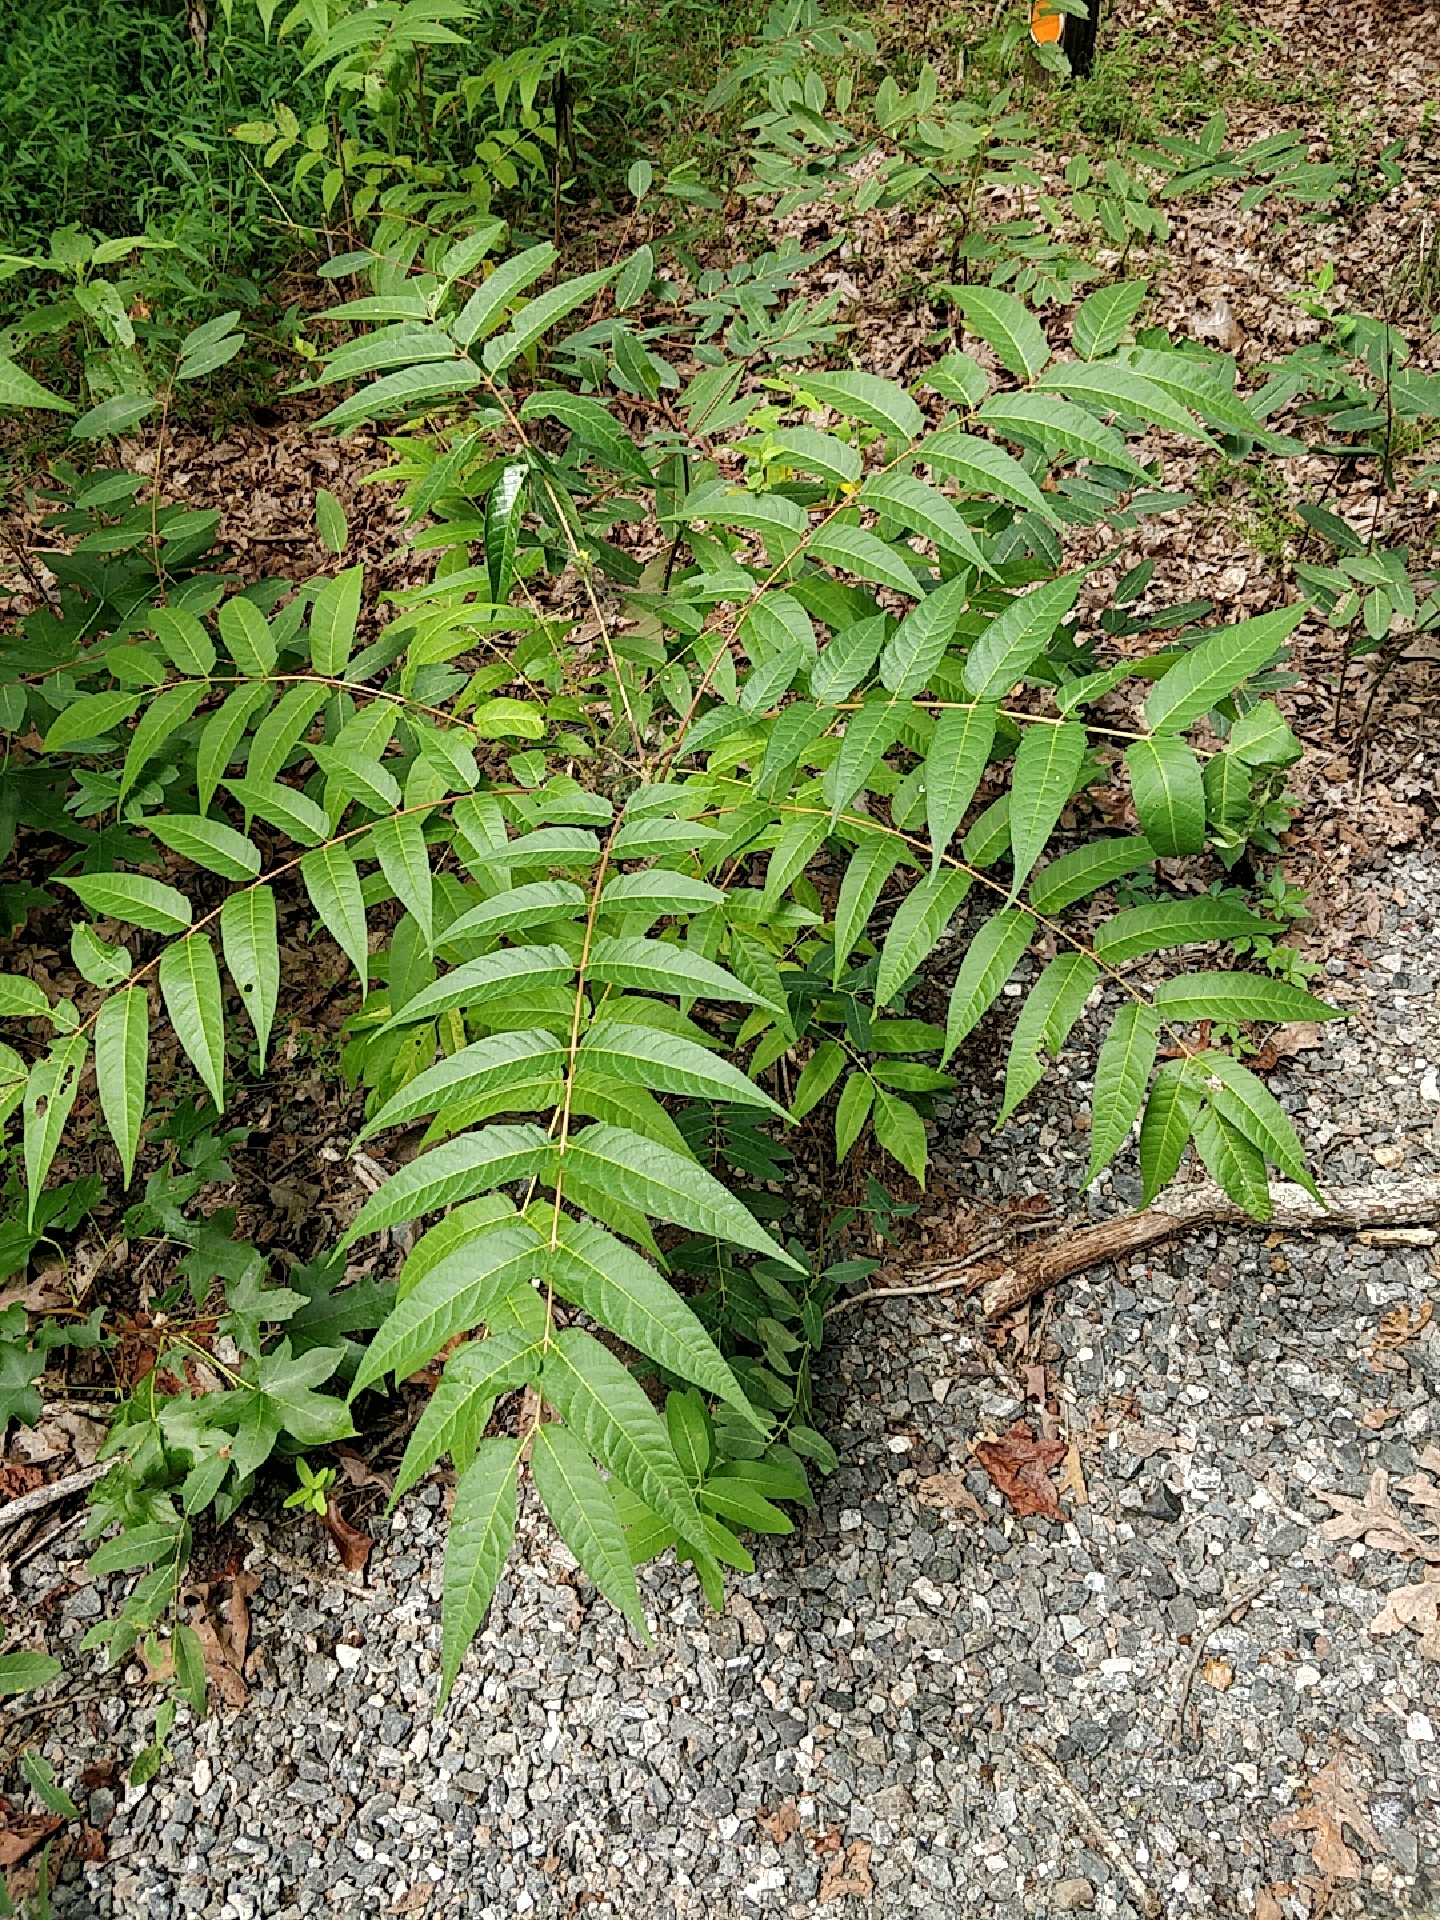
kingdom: Plantae
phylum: Tracheophyta
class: Magnoliopsida
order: Sapindales
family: Simaroubaceae
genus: Ailanthus
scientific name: Ailanthus altissima
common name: Tree-of-heaven
